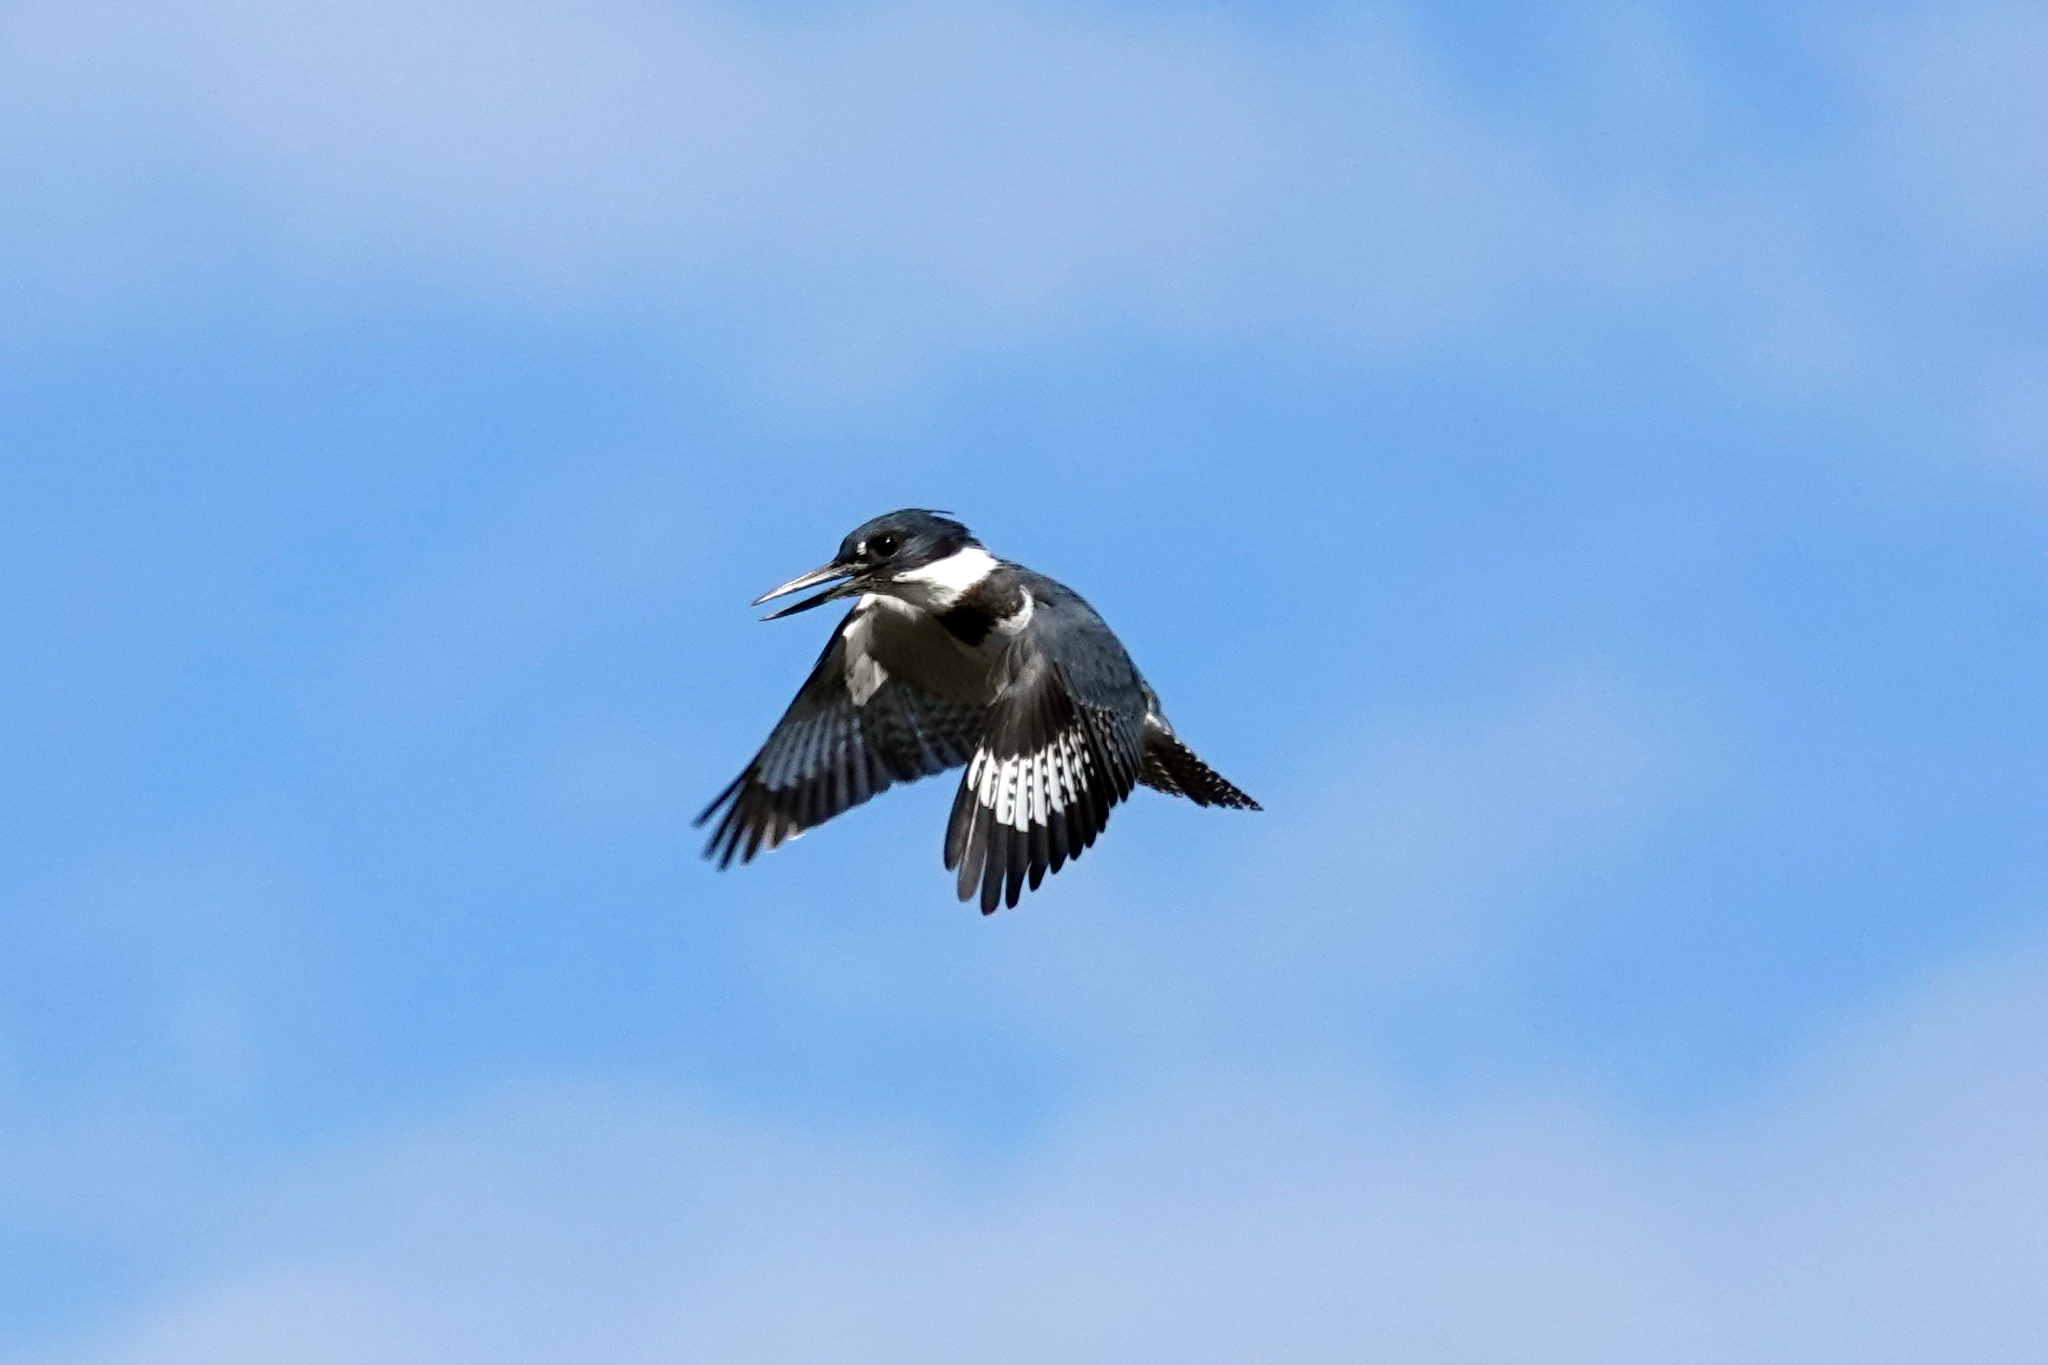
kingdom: Animalia
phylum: Chordata
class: Aves
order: Coraciiformes
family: Alcedinidae
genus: Megaceryle
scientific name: Megaceryle alcyon
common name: Belted kingfisher
